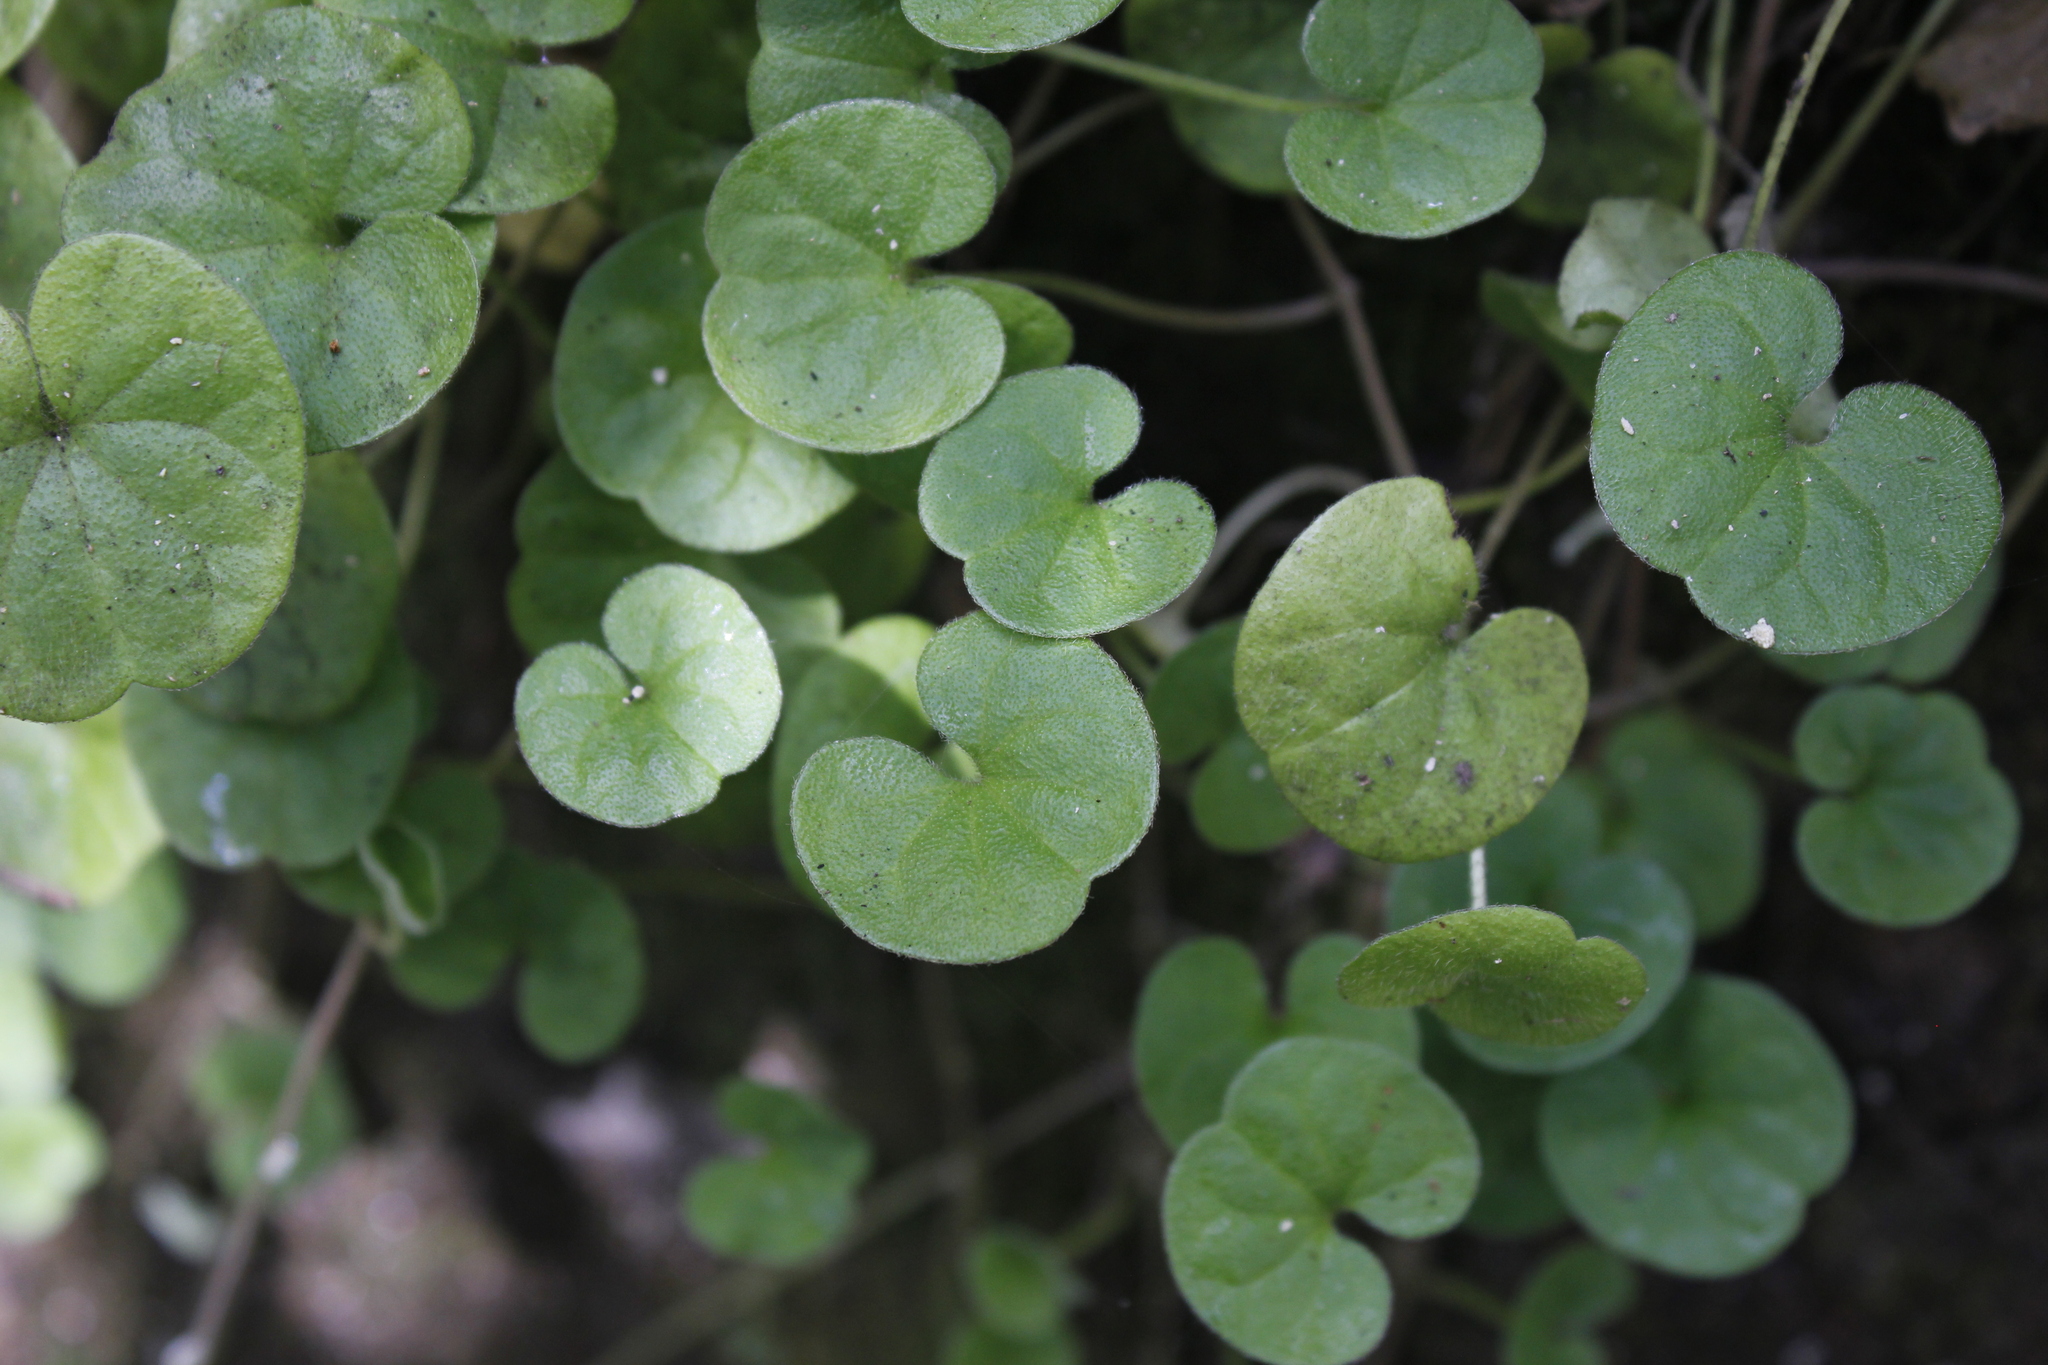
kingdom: Plantae
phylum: Tracheophyta
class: Magnoliopsida
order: Solanales
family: Convolvulaceae
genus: Dichondra
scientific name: Dichondra repens
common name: Kidneyweed
